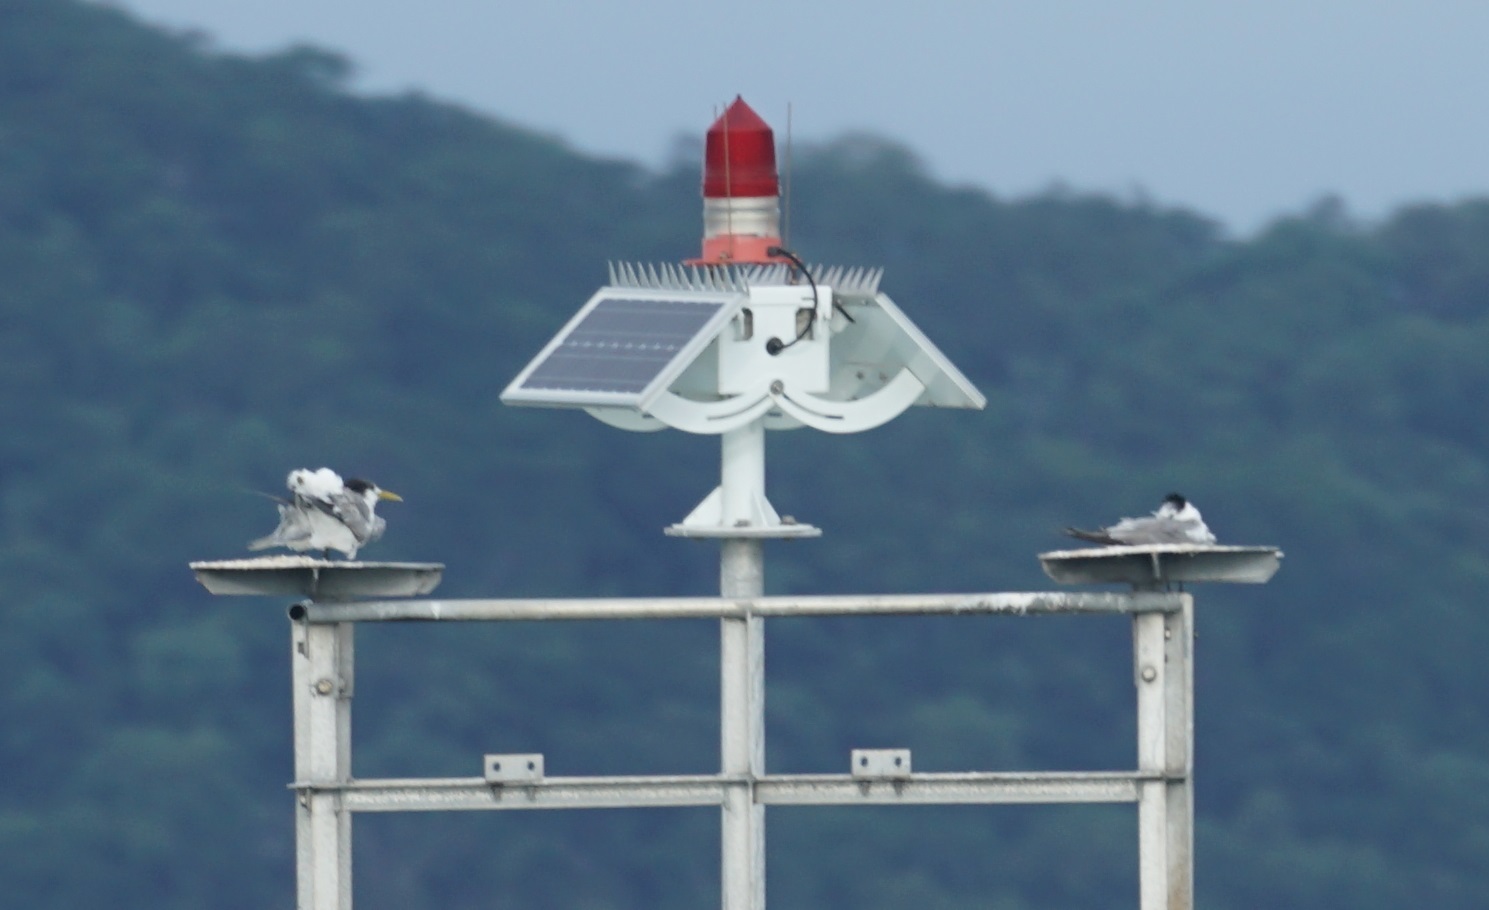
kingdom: Animalia
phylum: Chordata
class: Aves
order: Charadriiformes
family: Laridae
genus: Thalasseus
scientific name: Thalasseus bergii
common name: Greater crested tern
